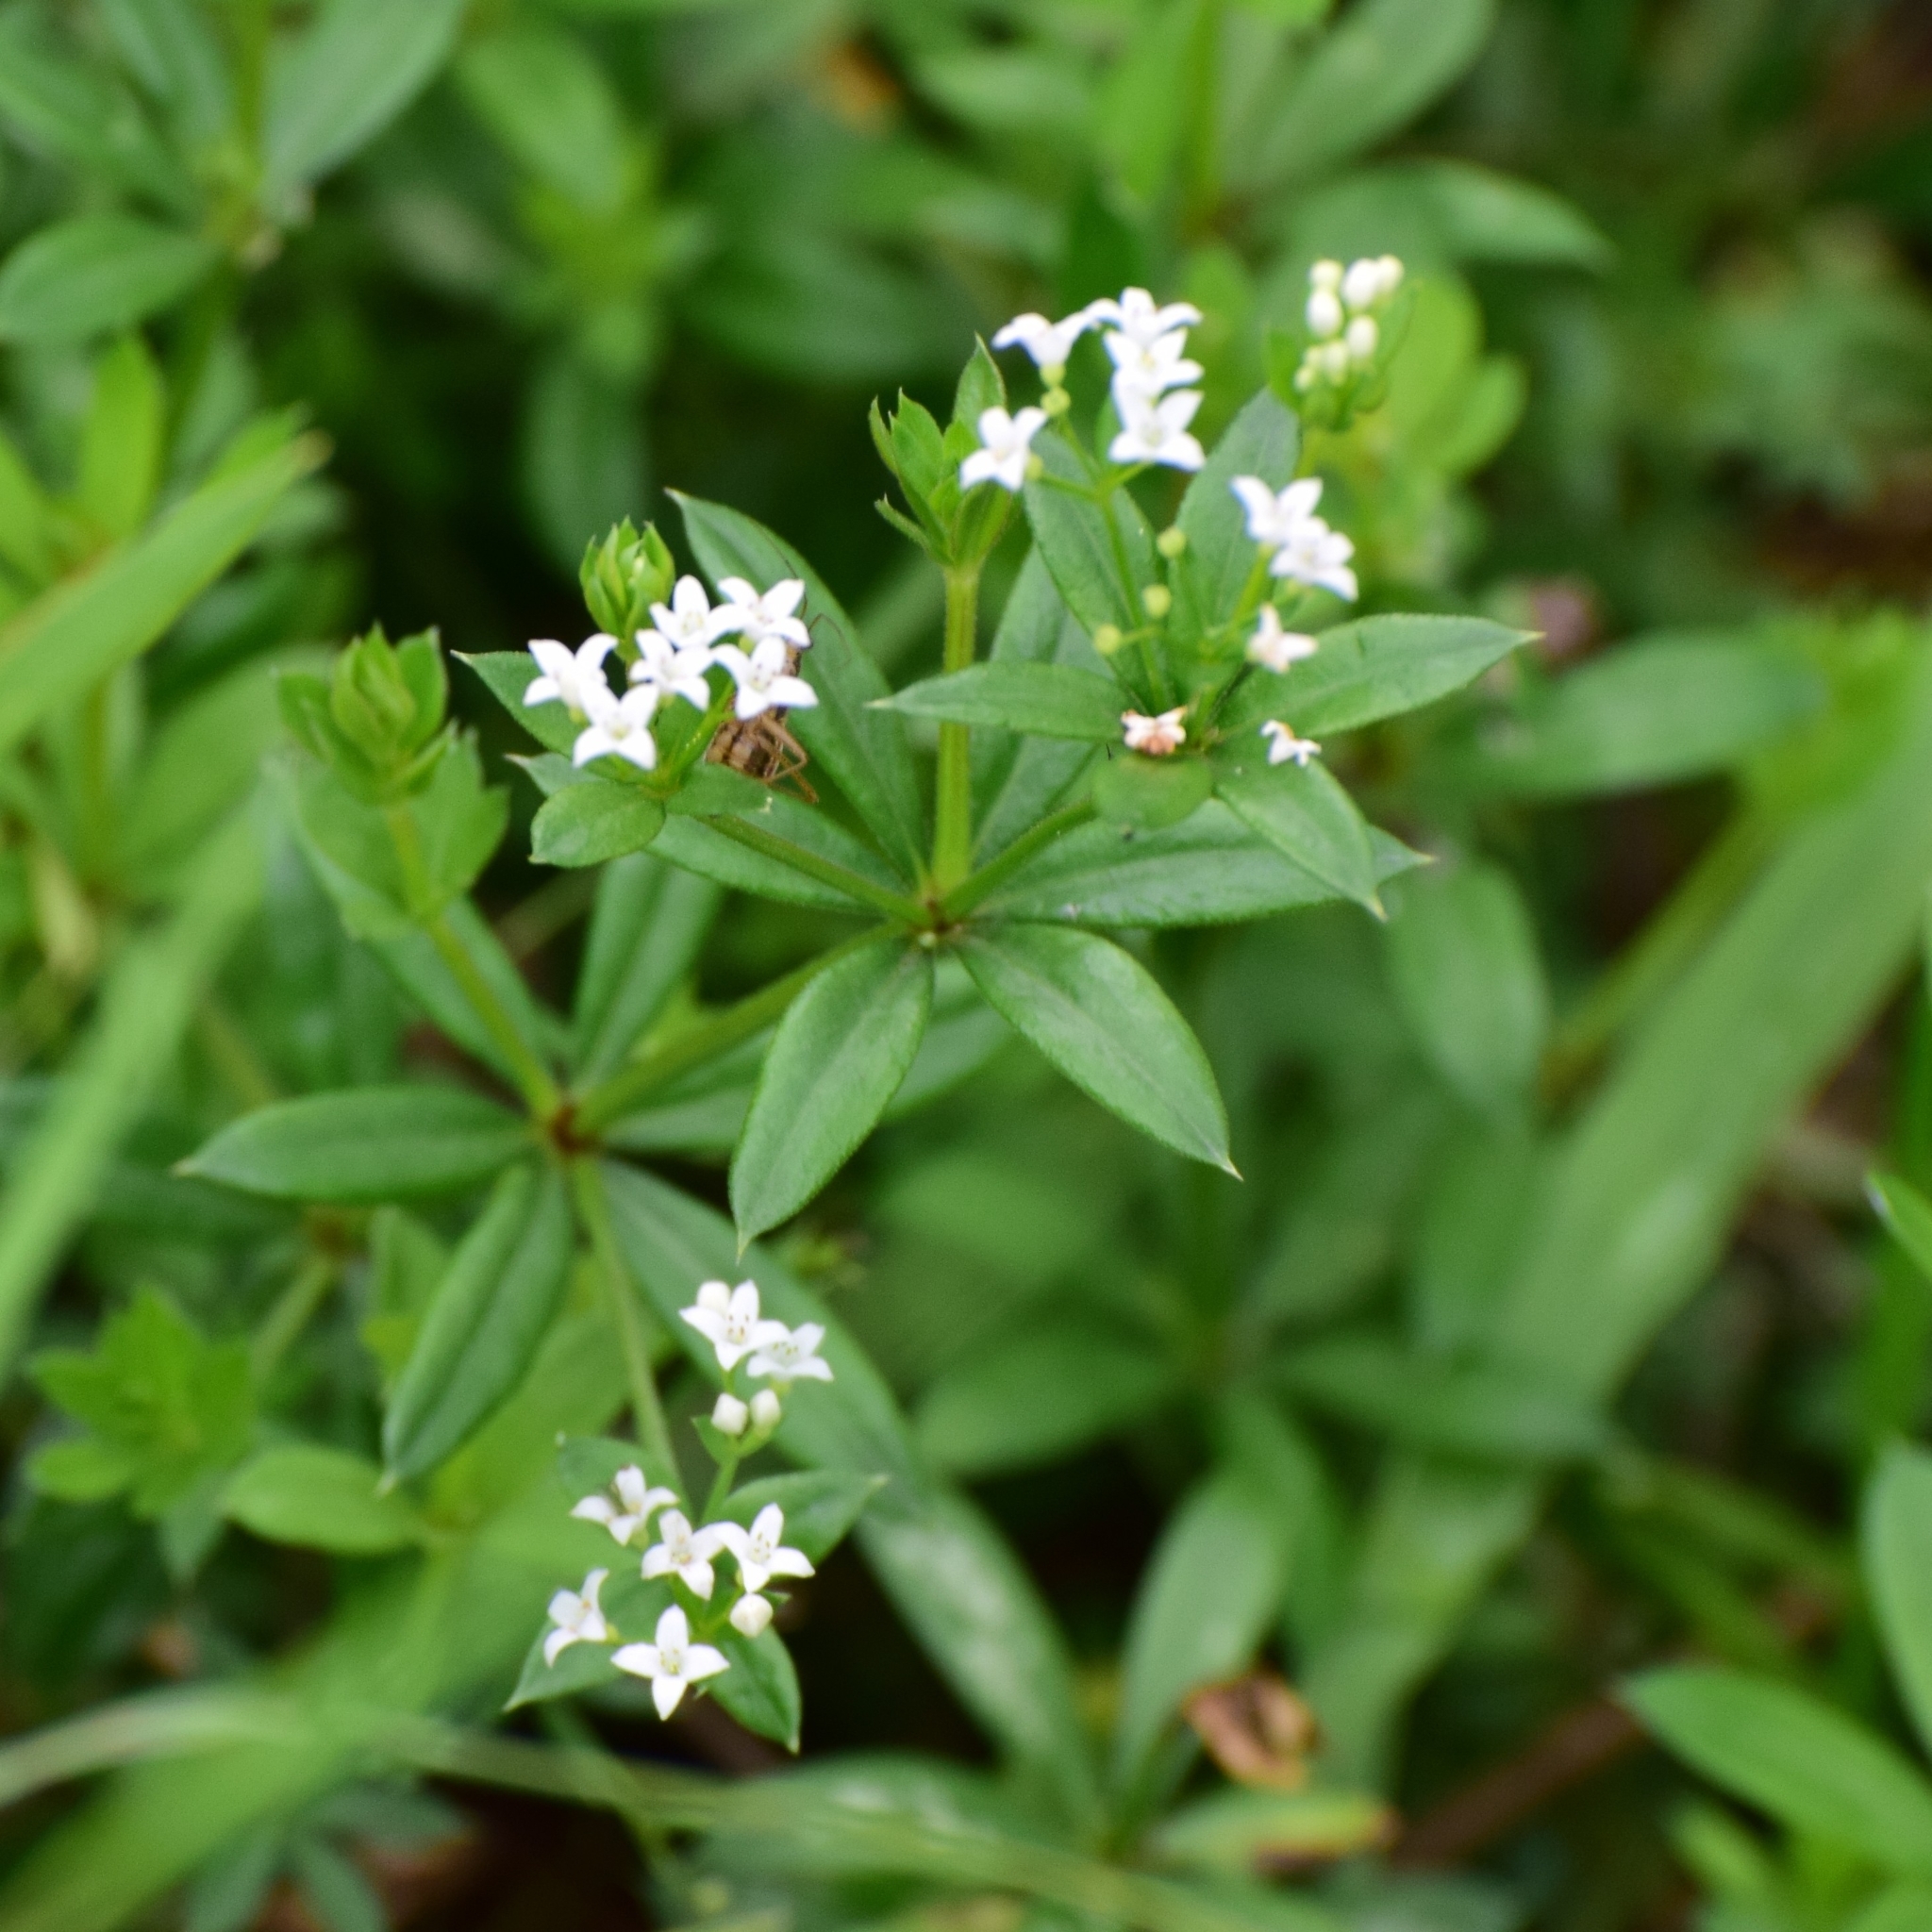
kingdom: Plantae
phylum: Tracheophyta
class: Magnoliopsida
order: Gentianales
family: Rubiaceae
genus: Galium
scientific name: Galium rivale
